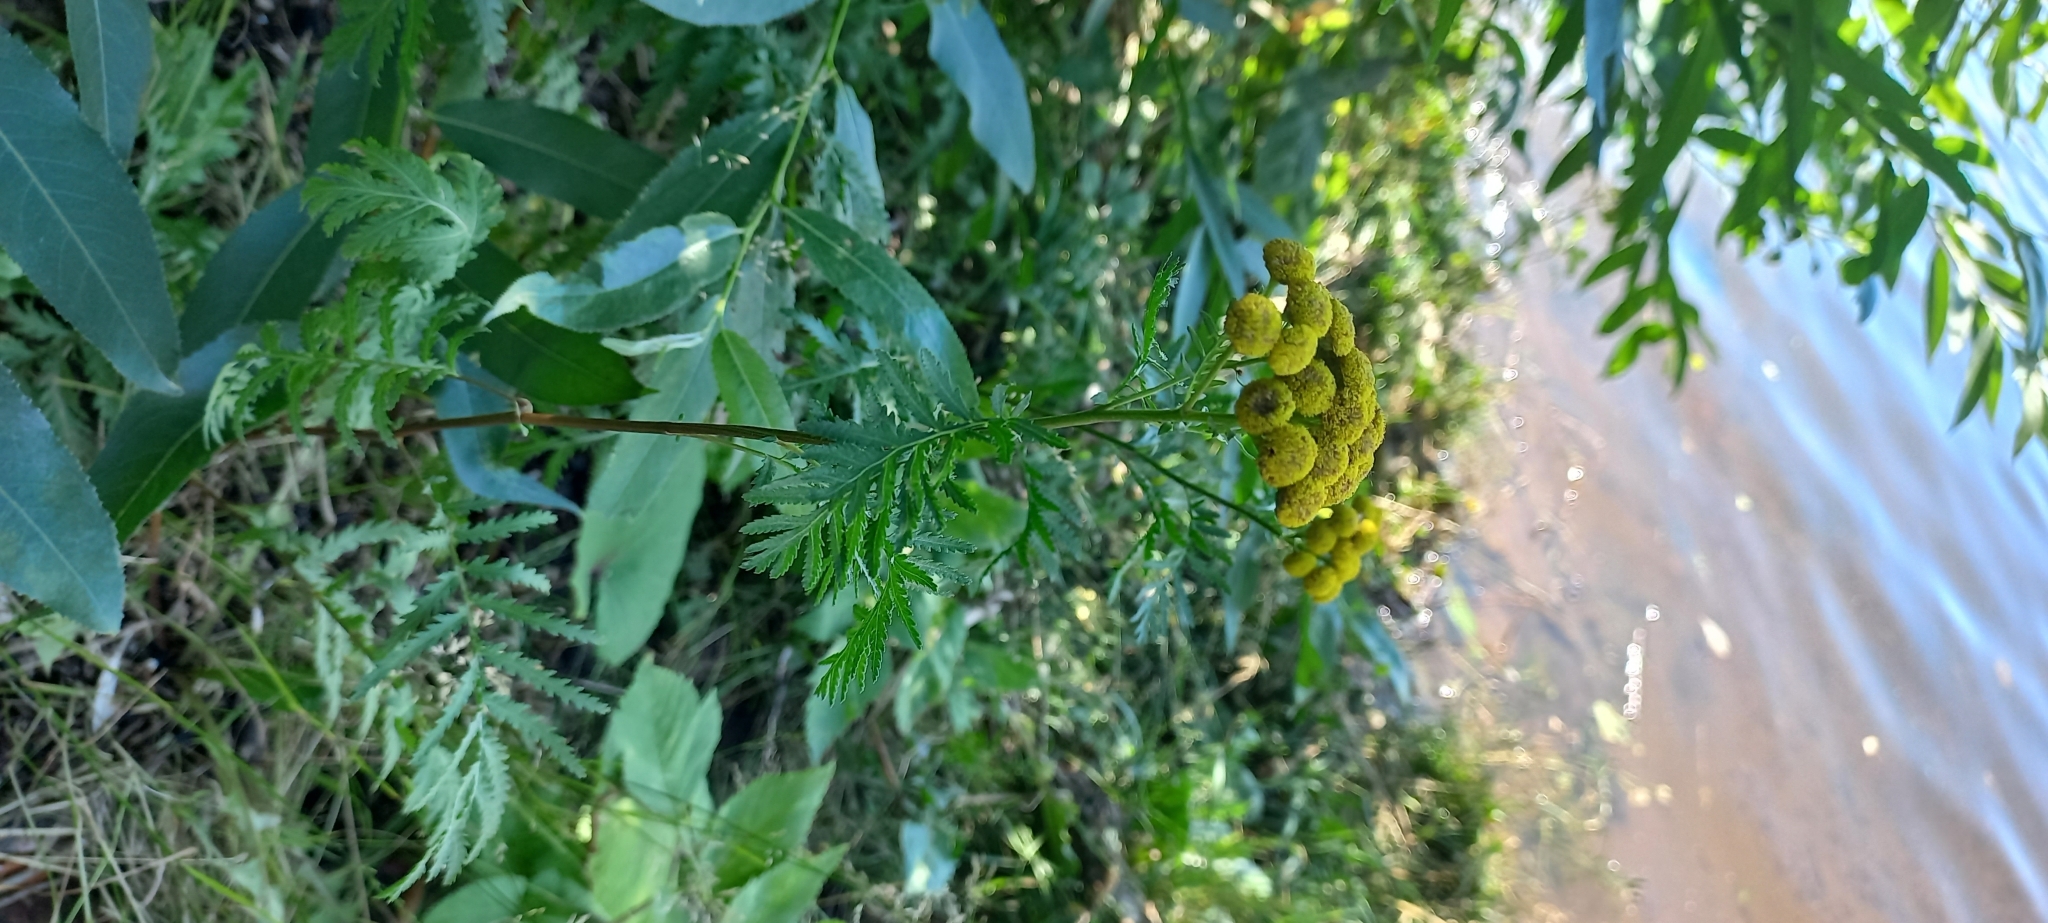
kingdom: Plantae
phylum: Tracheophyta
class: Magnoliopsida
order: Asterales
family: Asteraceae
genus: Tanacetum
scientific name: Tanacetum vulgare
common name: Common tansy
